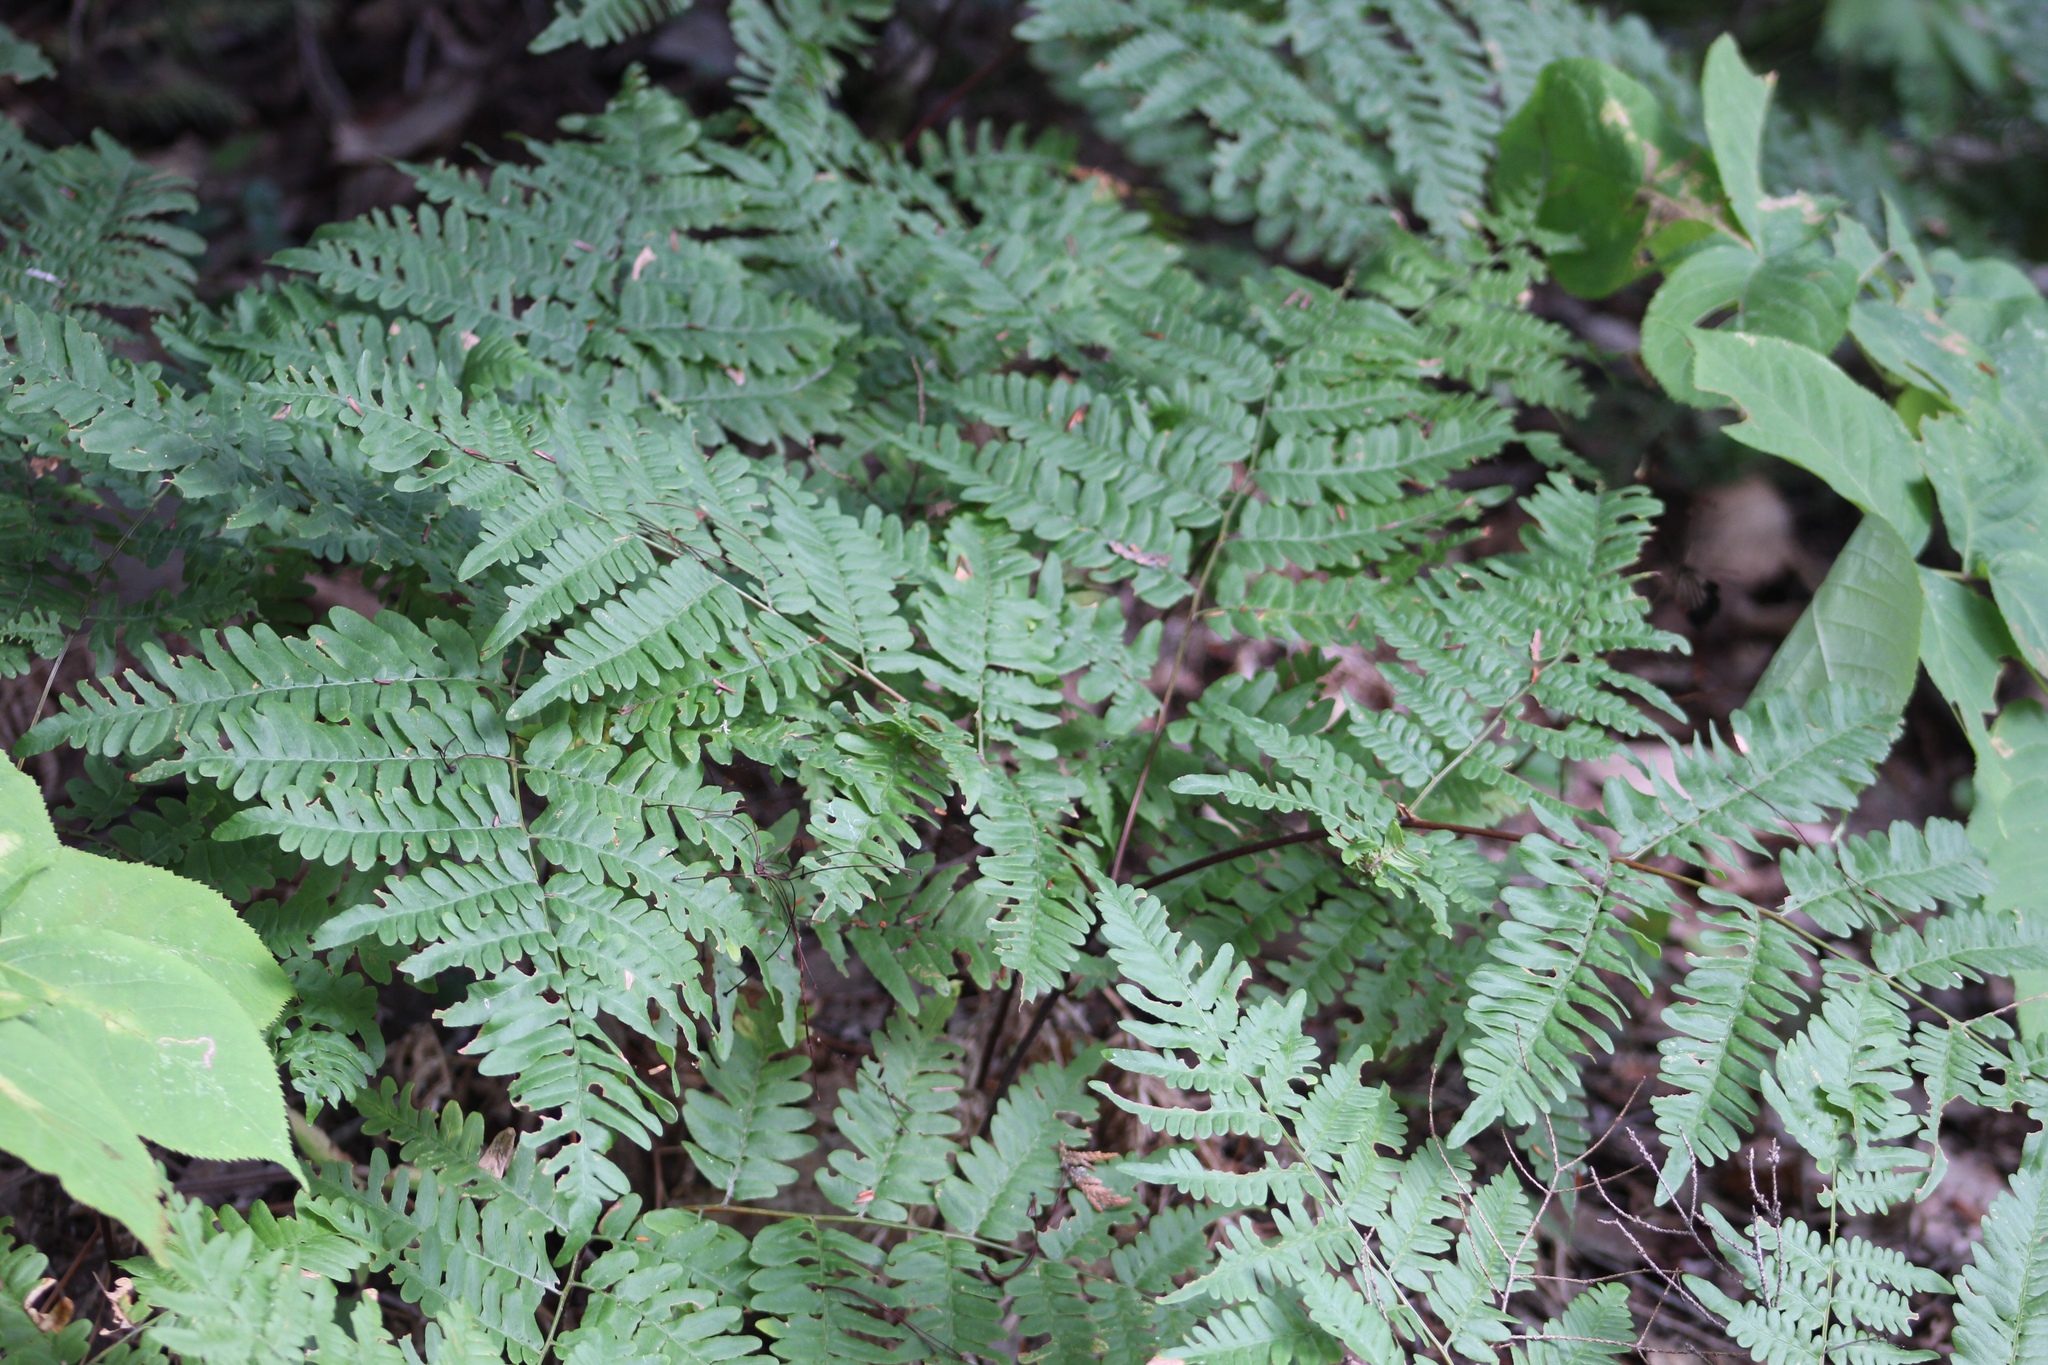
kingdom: Plantae
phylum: Tracheophyta
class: Polypodiopsida
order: Polypodiales
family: Dennstaedtiaceae
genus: Pteridium
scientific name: Pteridium aquilinum
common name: Bracken
